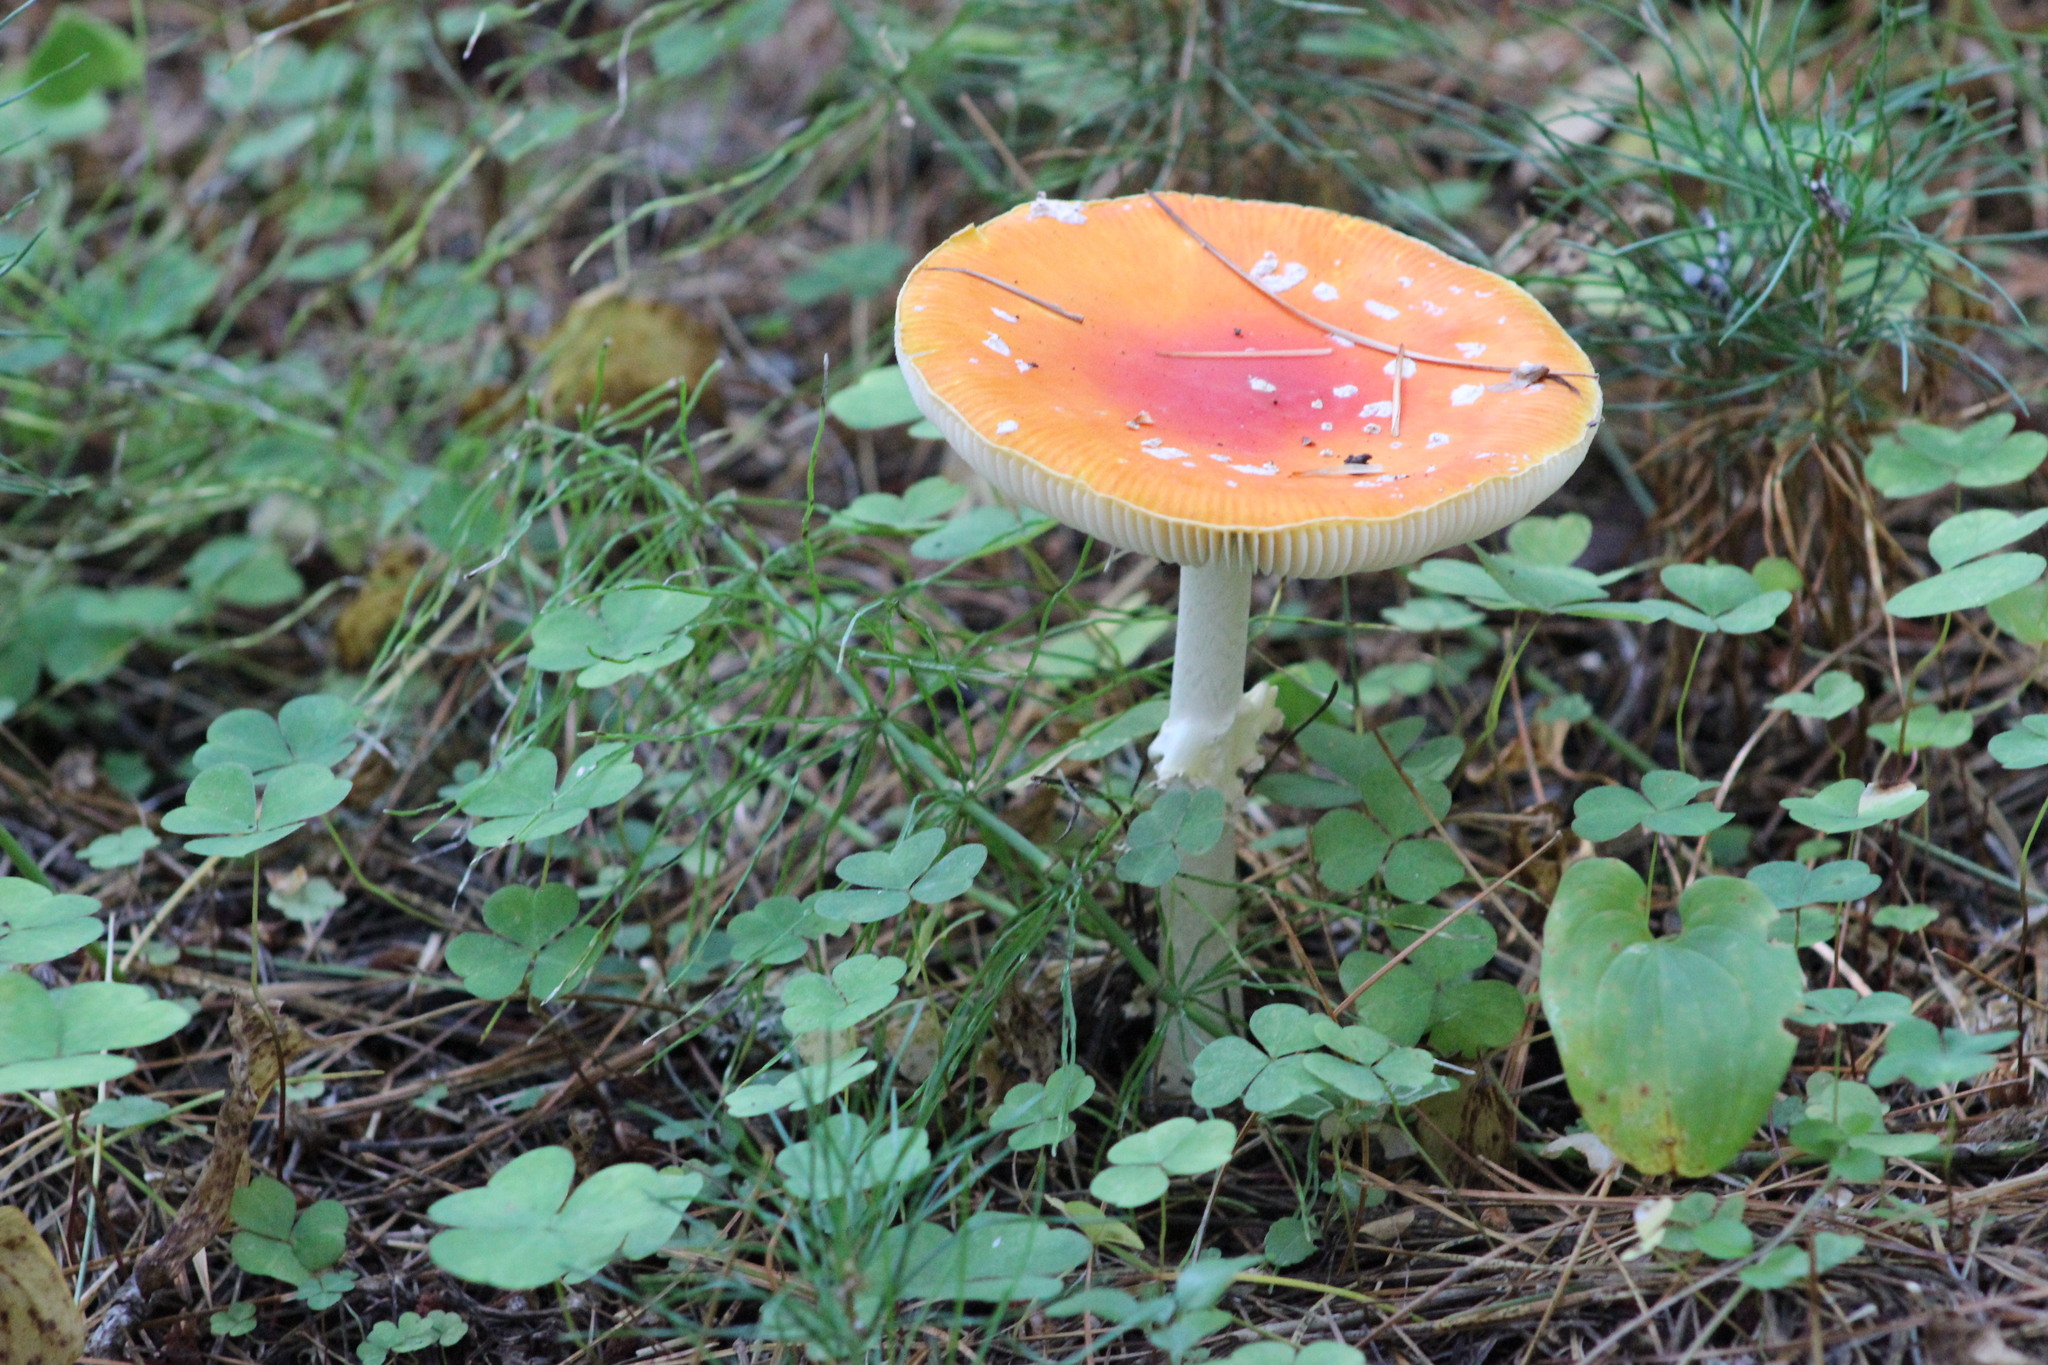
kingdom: Fungi
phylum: Basidiomycota
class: Agaricomycetes
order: Agaricales
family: Amanitaceae
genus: Amanita
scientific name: Amanita muscaria
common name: Fly agaric
